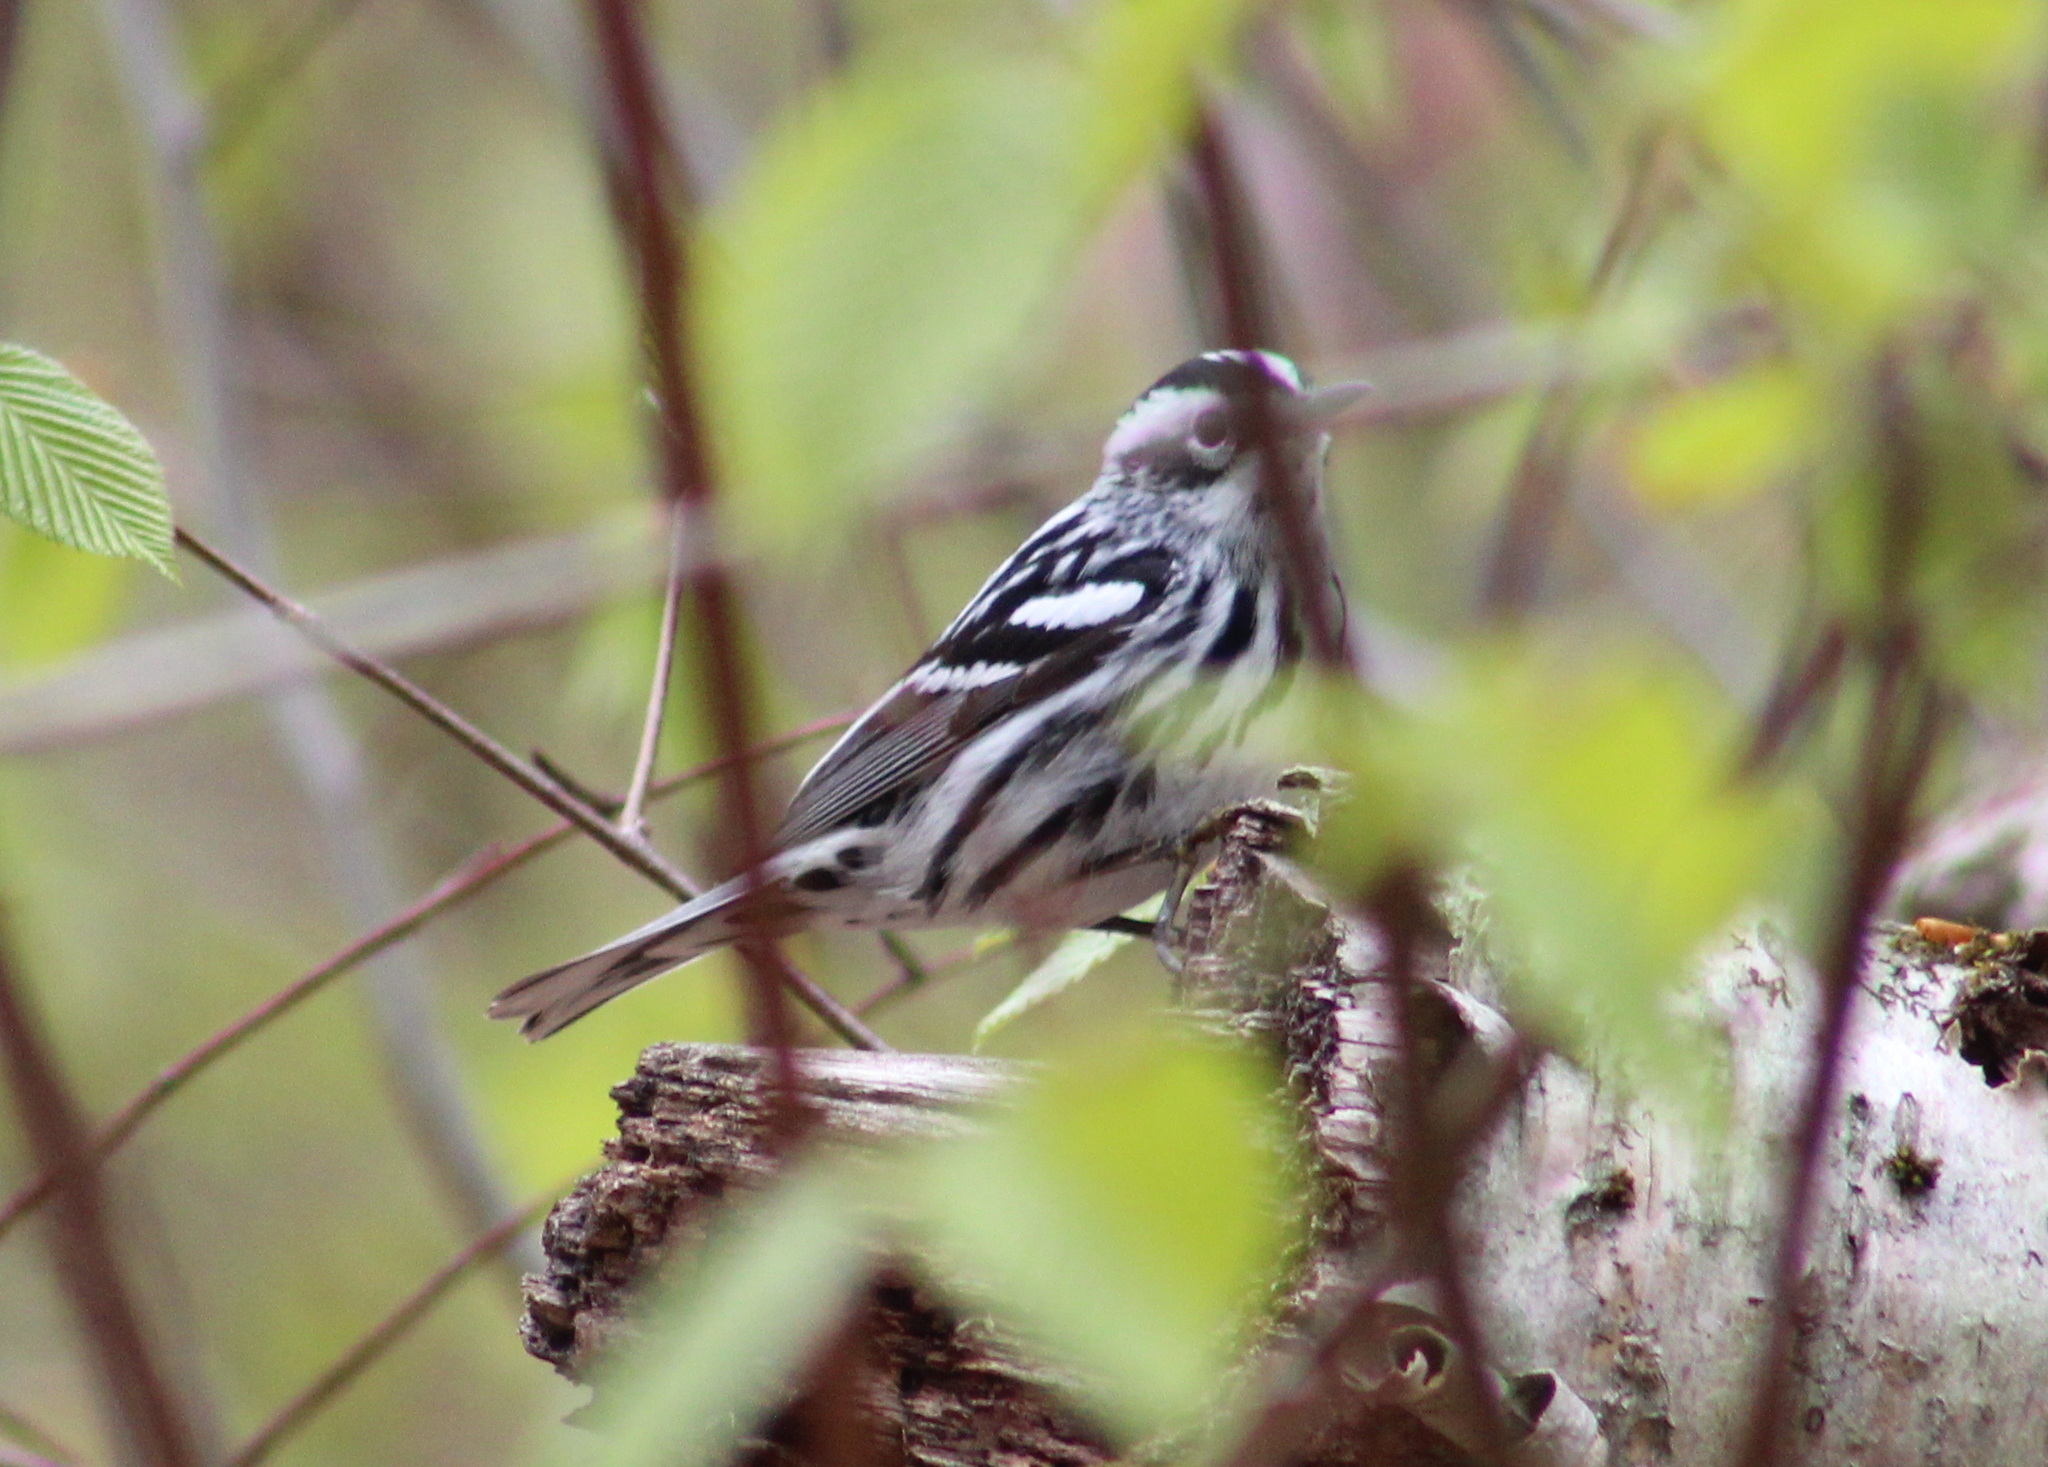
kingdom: Animalia
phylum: Chordata
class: Aves
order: Passeriformes
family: Parulidae
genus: Mniotilta
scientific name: Mniotilta varia
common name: Black-and-white warbler
